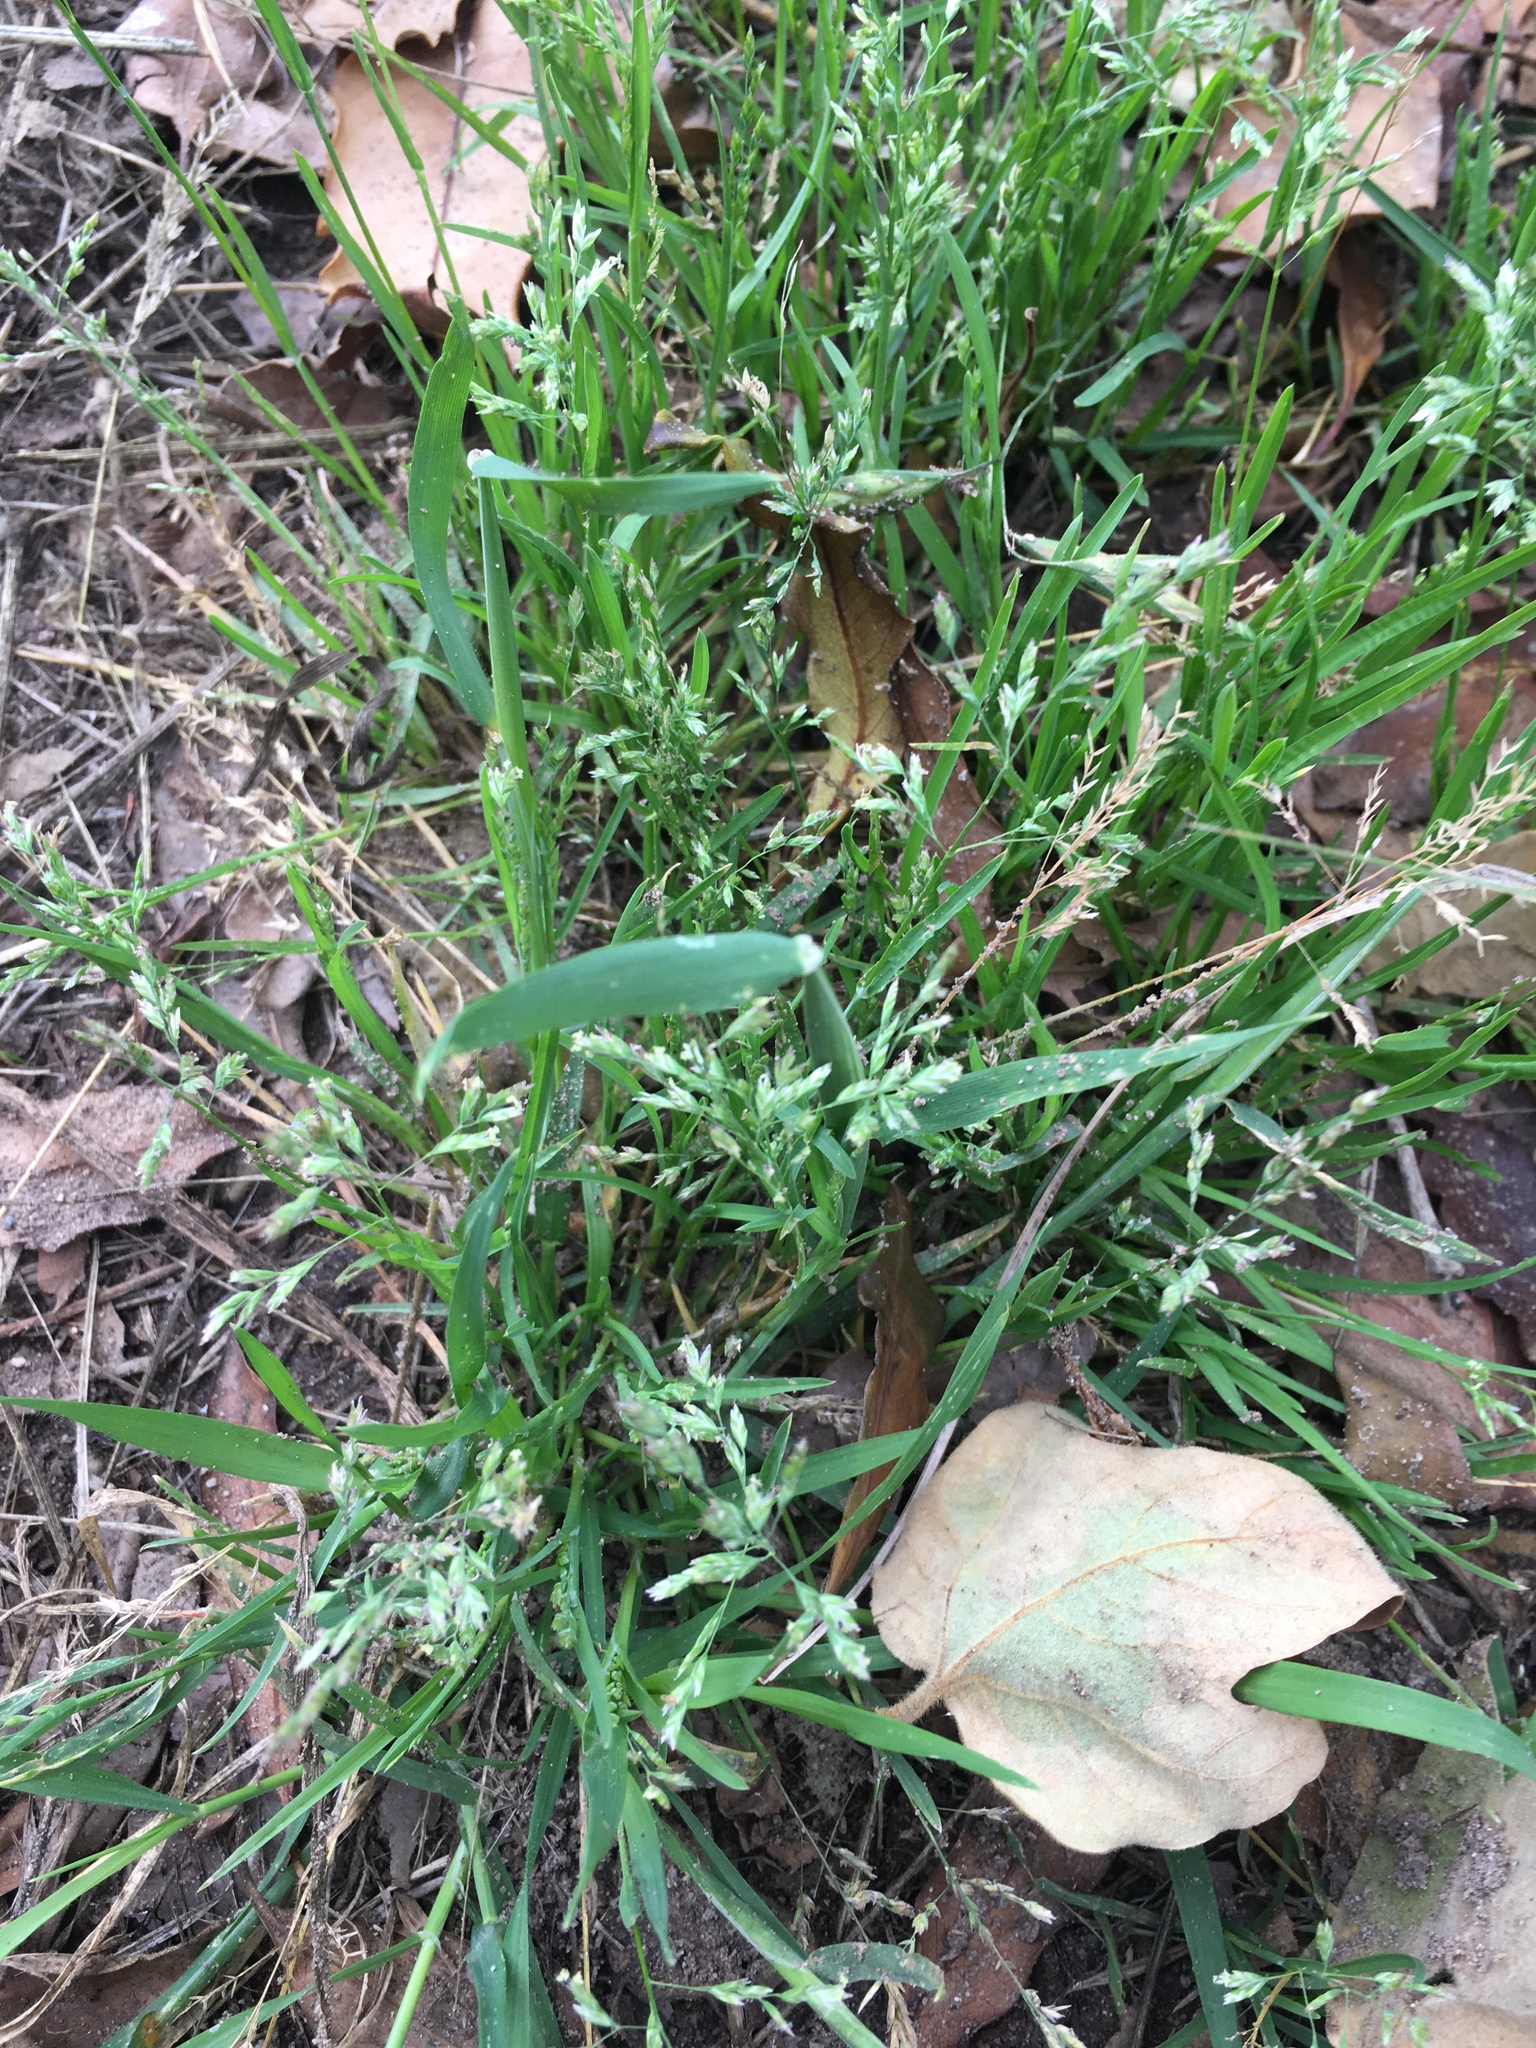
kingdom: Plantae
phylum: Tracheophyta
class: Liliopsida
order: Poales
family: Poaceae
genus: Poa
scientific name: Poa annua
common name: Annual bluegrass
